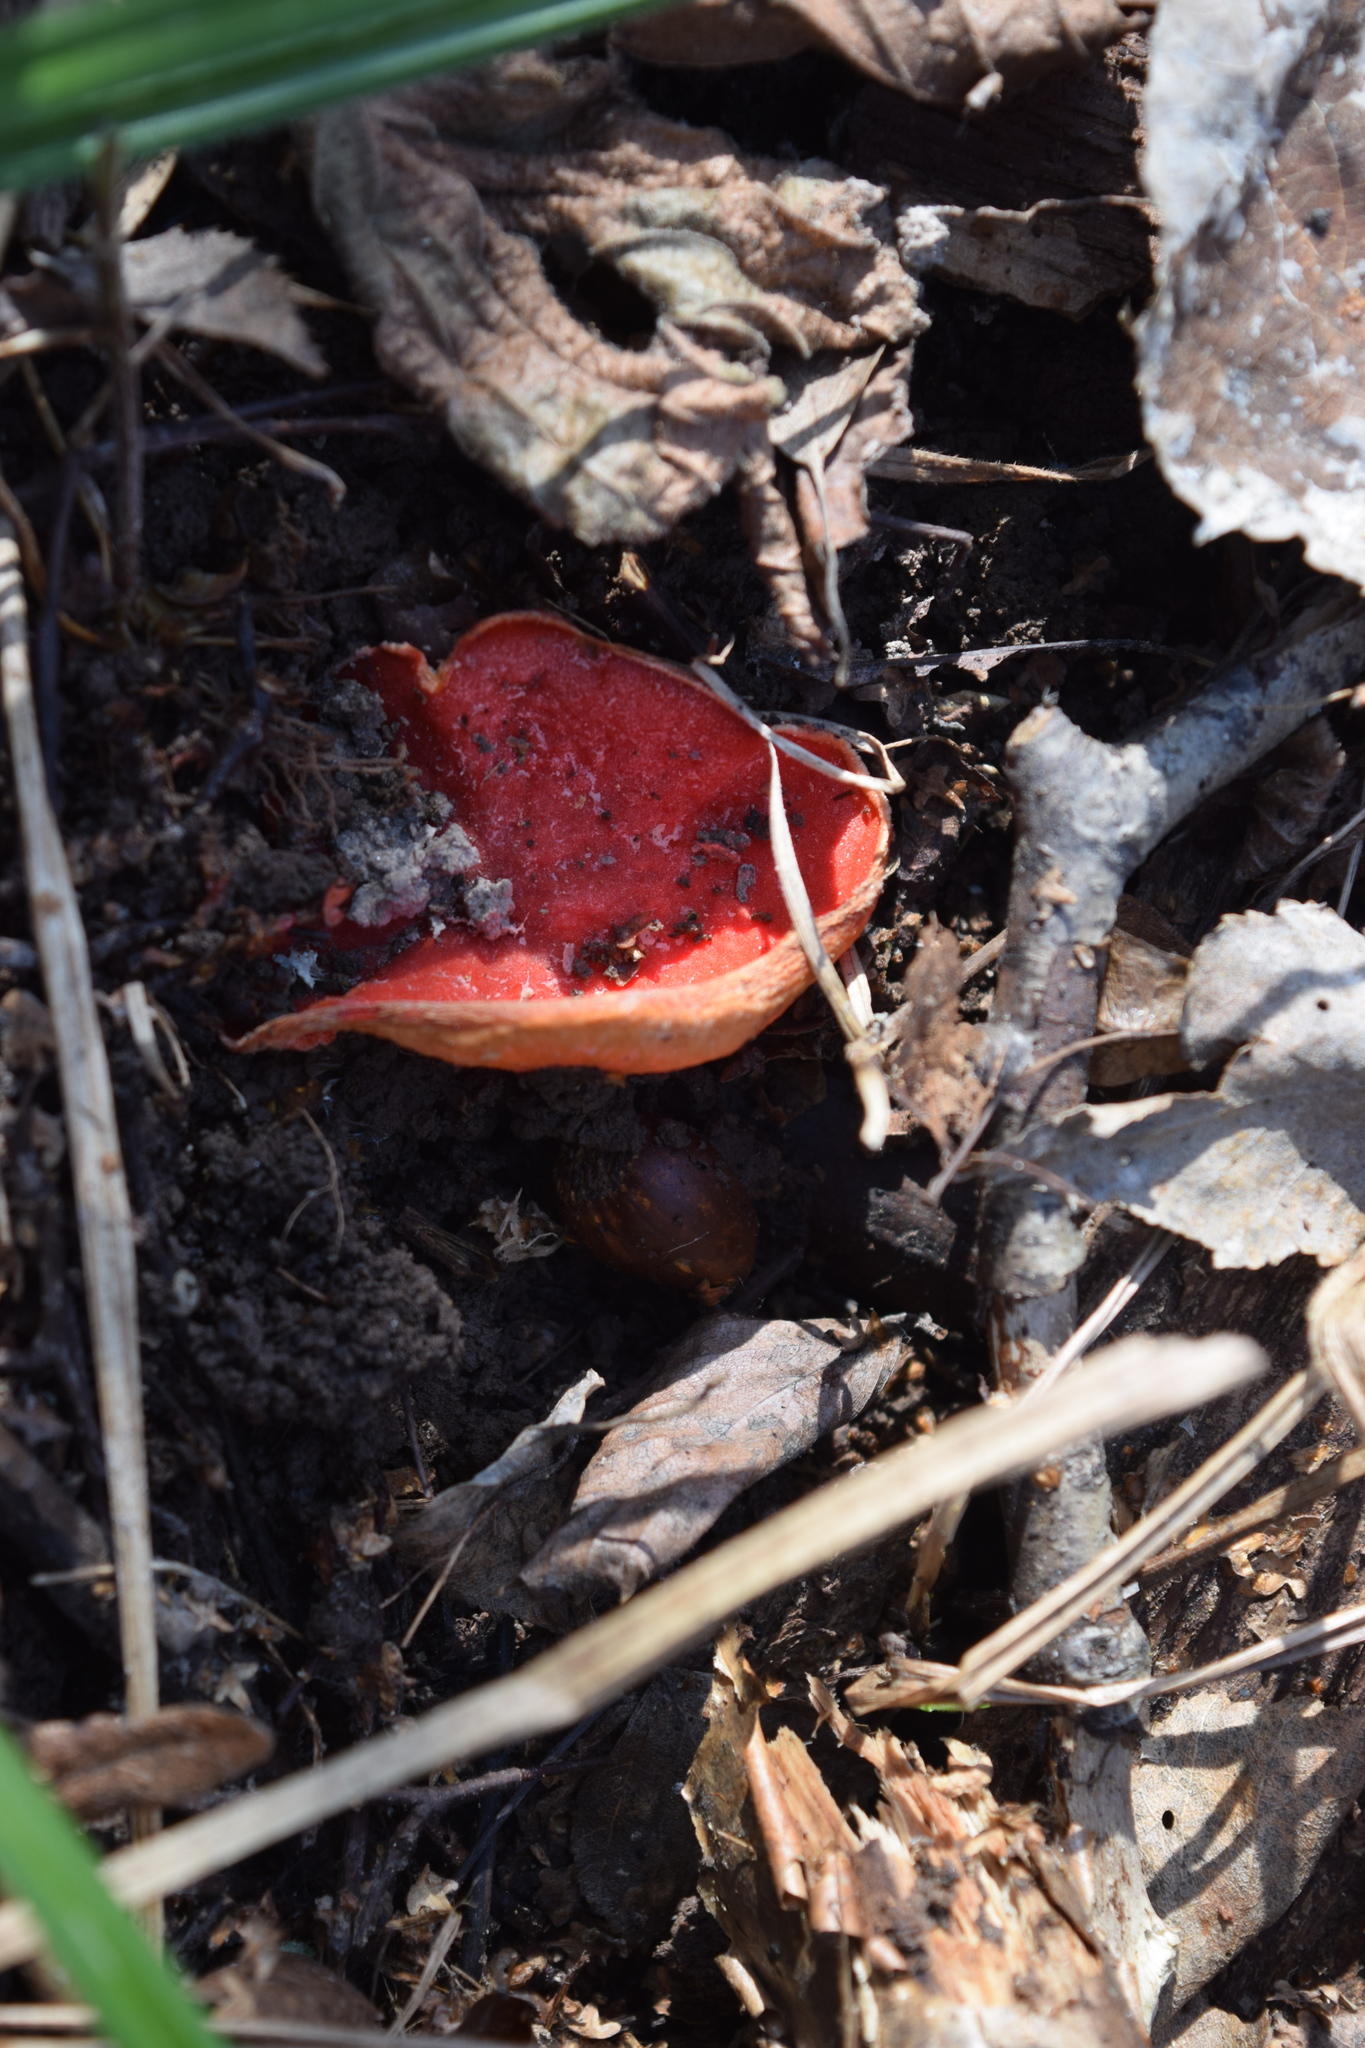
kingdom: Fungi
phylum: Ascomycota
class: Pezizomycetes
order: Pezizales
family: Sarcoscyphaceae
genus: Sarcoscypha
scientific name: Sarcoscypha austriaca
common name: Scarlet elfcup
